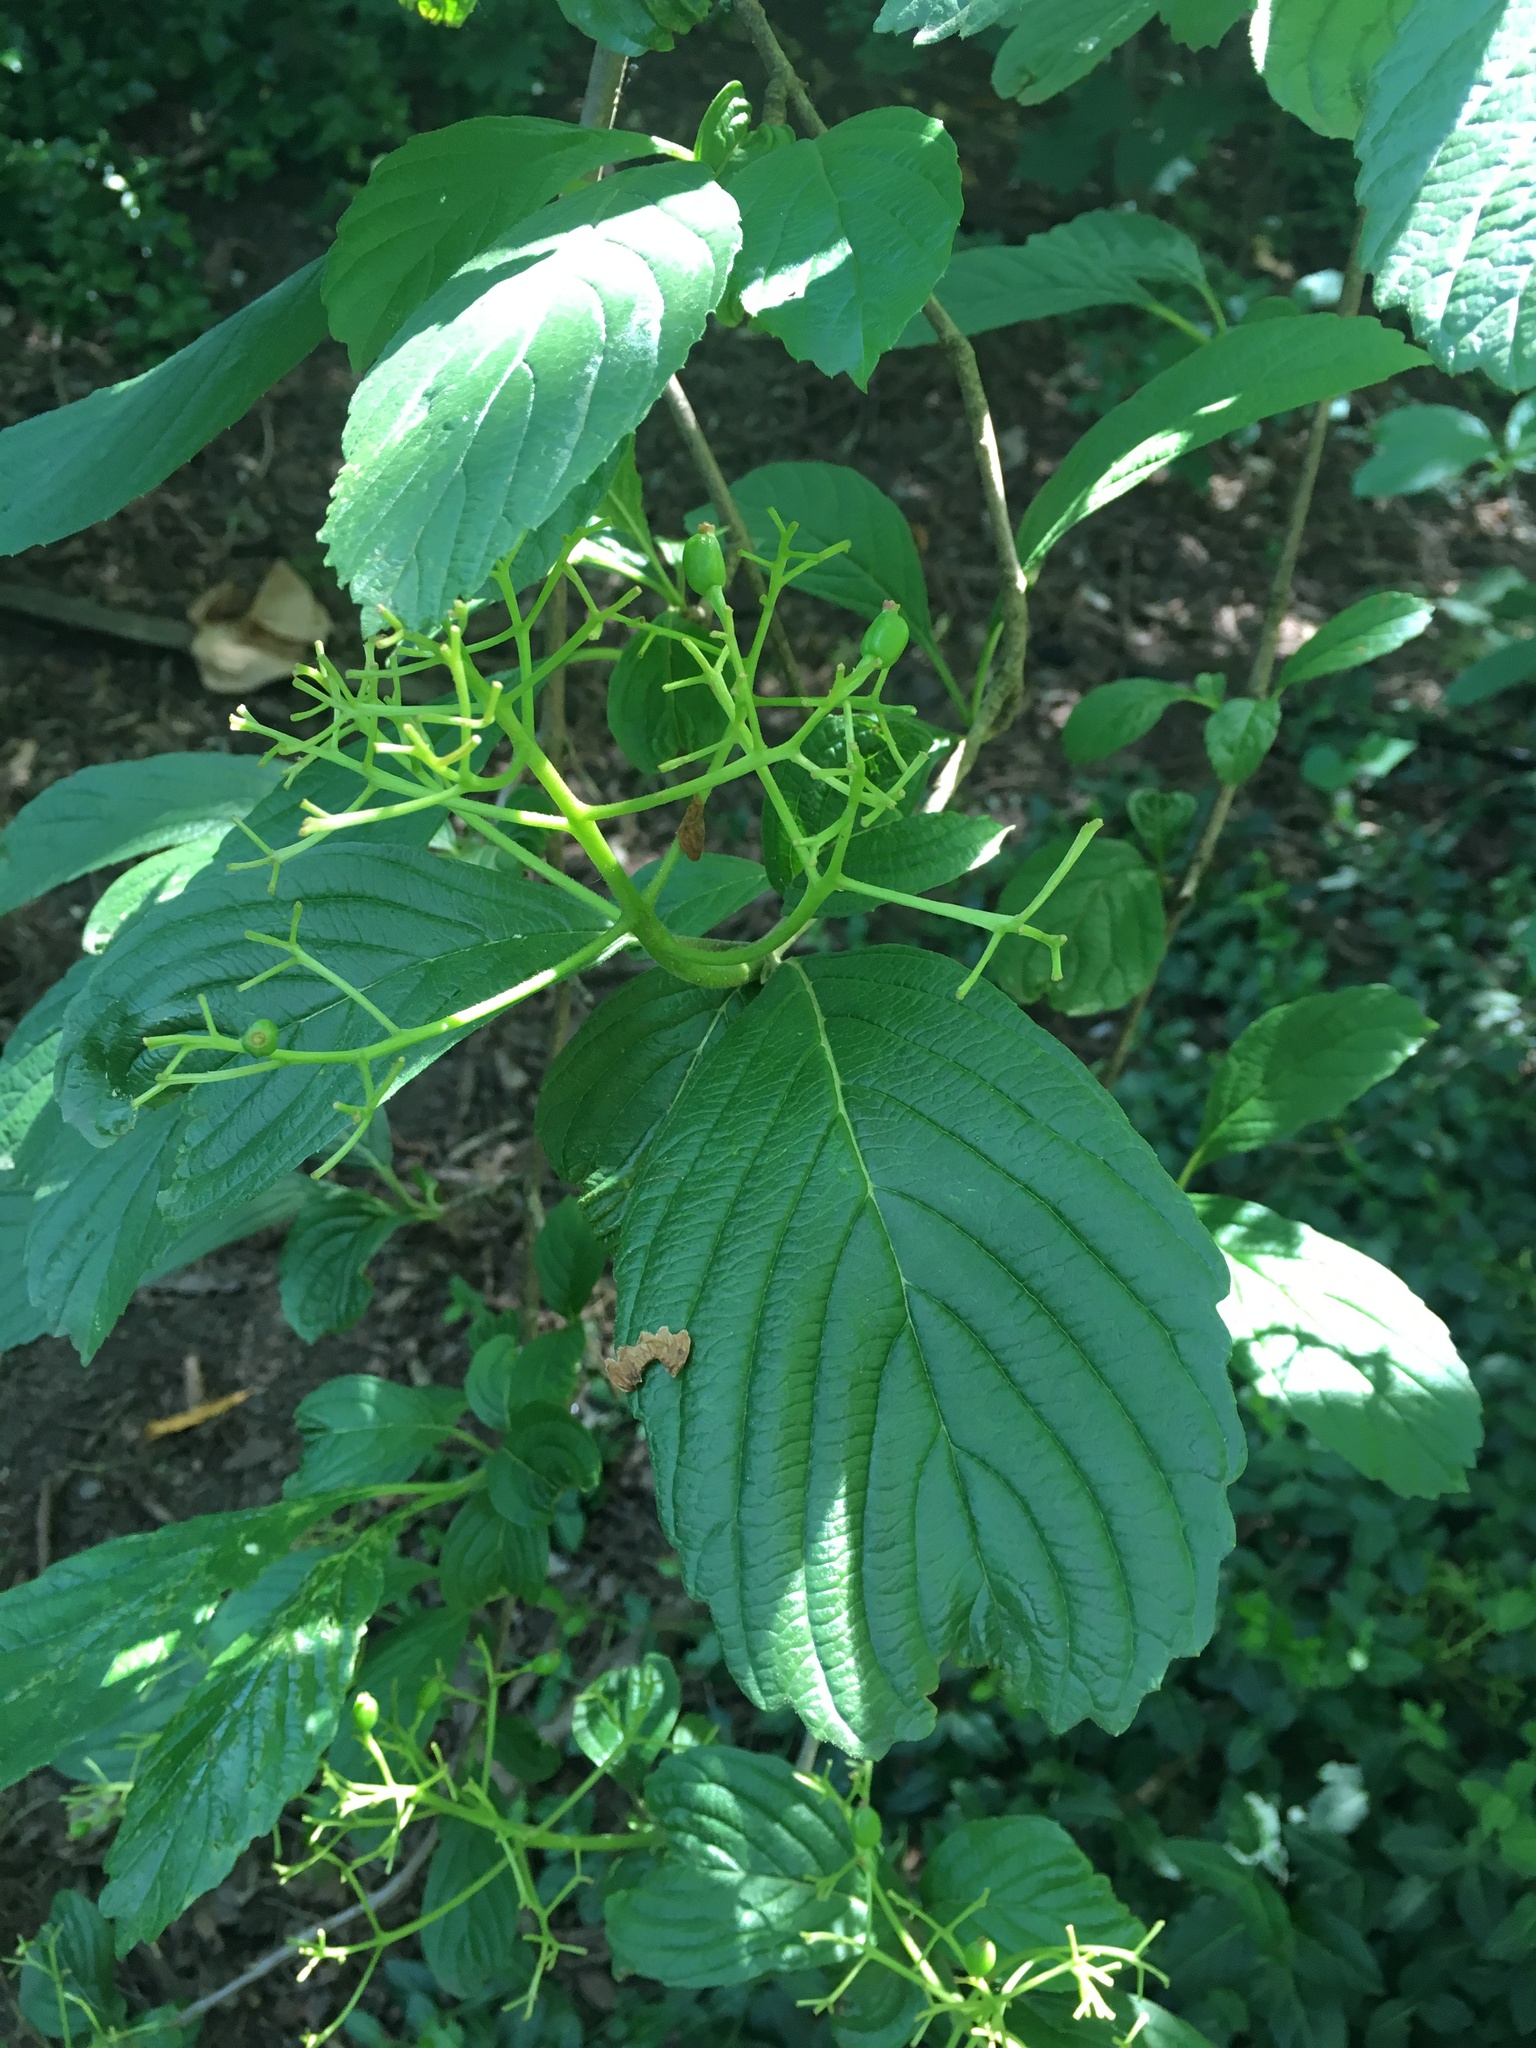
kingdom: Plantae
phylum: Tracheophyta
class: Magnoliopsida
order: Dipsacales
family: Viburnaceae
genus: Viburnum
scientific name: Viburnum sieboldii
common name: Siebold's arrowwood
